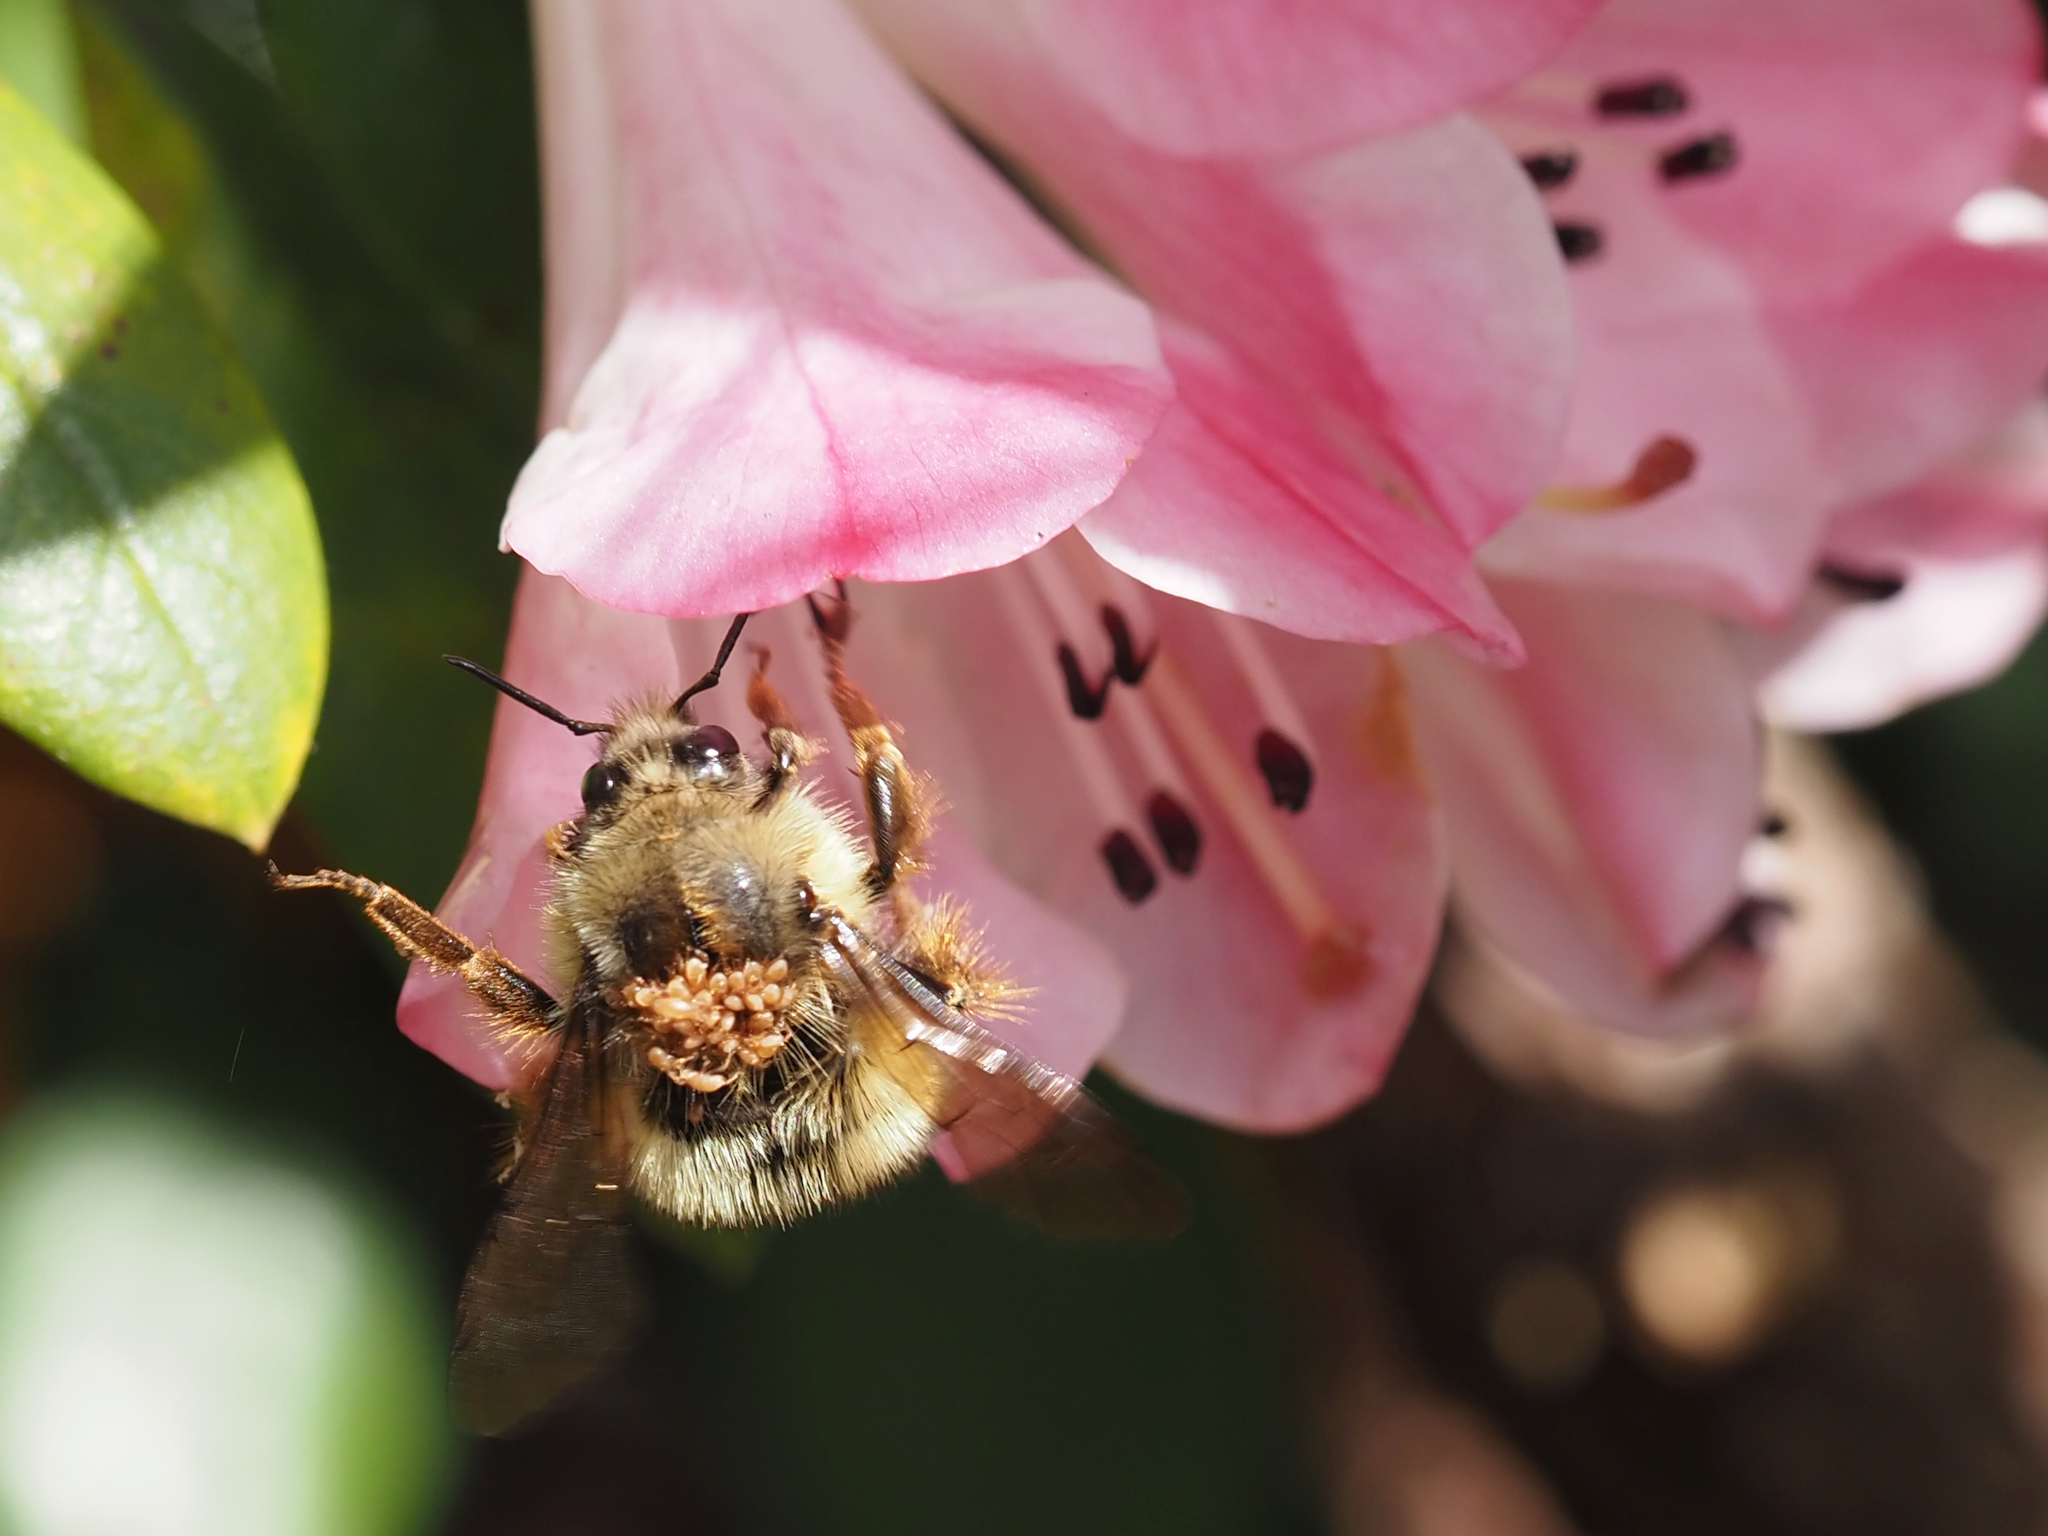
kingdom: Animalia
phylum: Arthropoda
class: Insecta
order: Hymenoptera
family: Apidae
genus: Bombus
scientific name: Bombus mixtus
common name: Fuzzy-horned bumble bee
